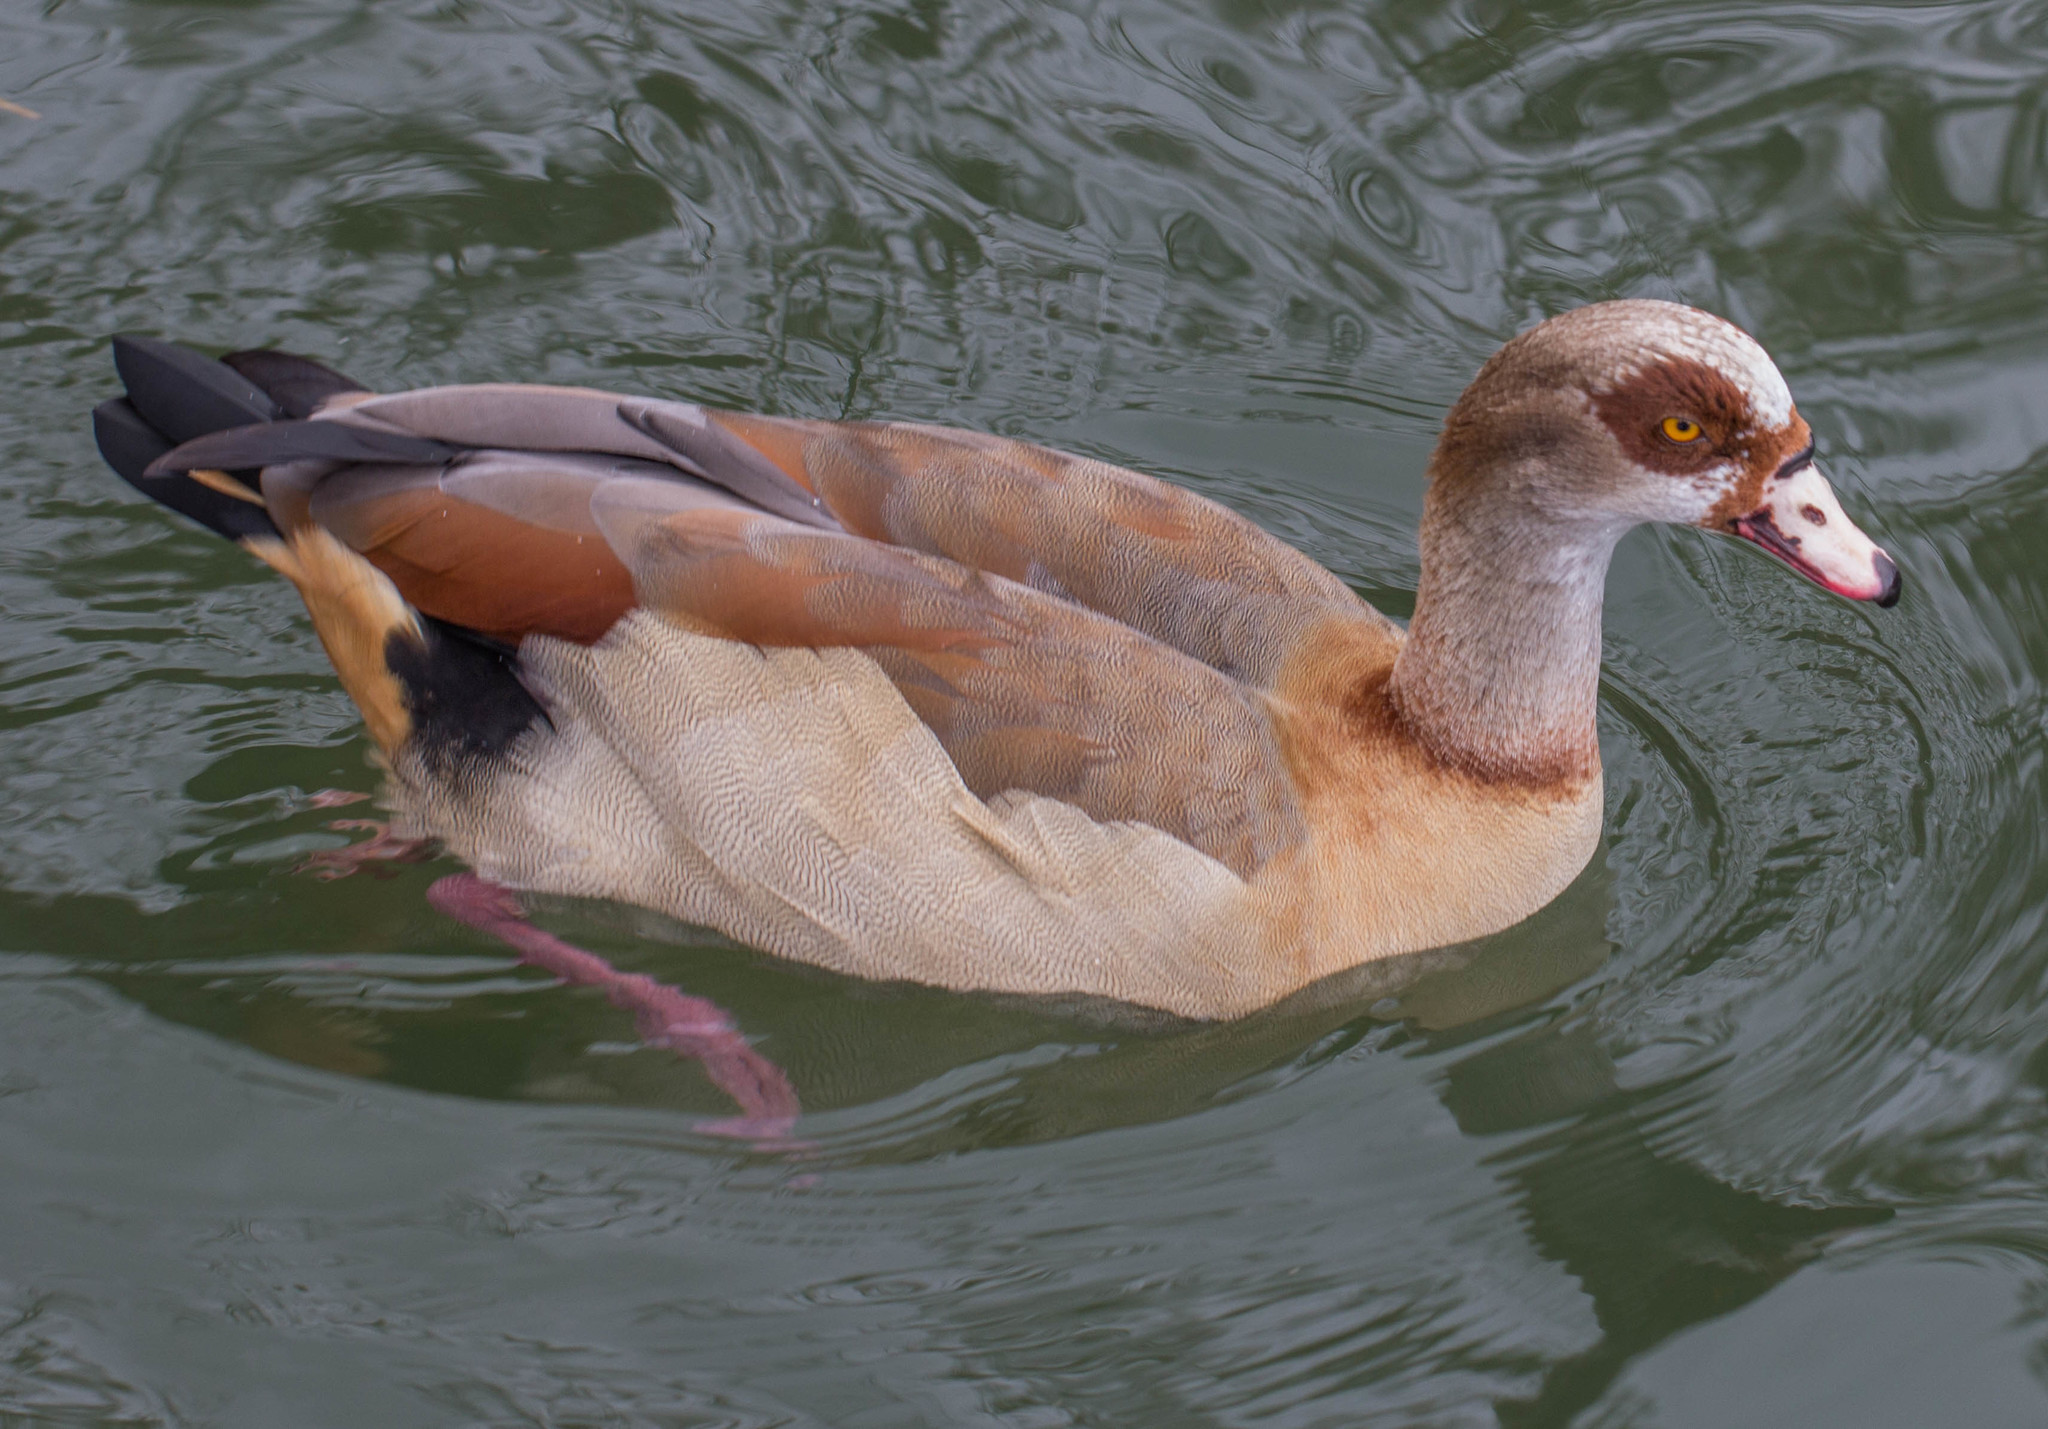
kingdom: Animalia
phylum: Chordata
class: Aves
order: Anseriformes
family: Anatidae
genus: Alopochen
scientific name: Alopochen aegyptiaca
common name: Egyptian goose
